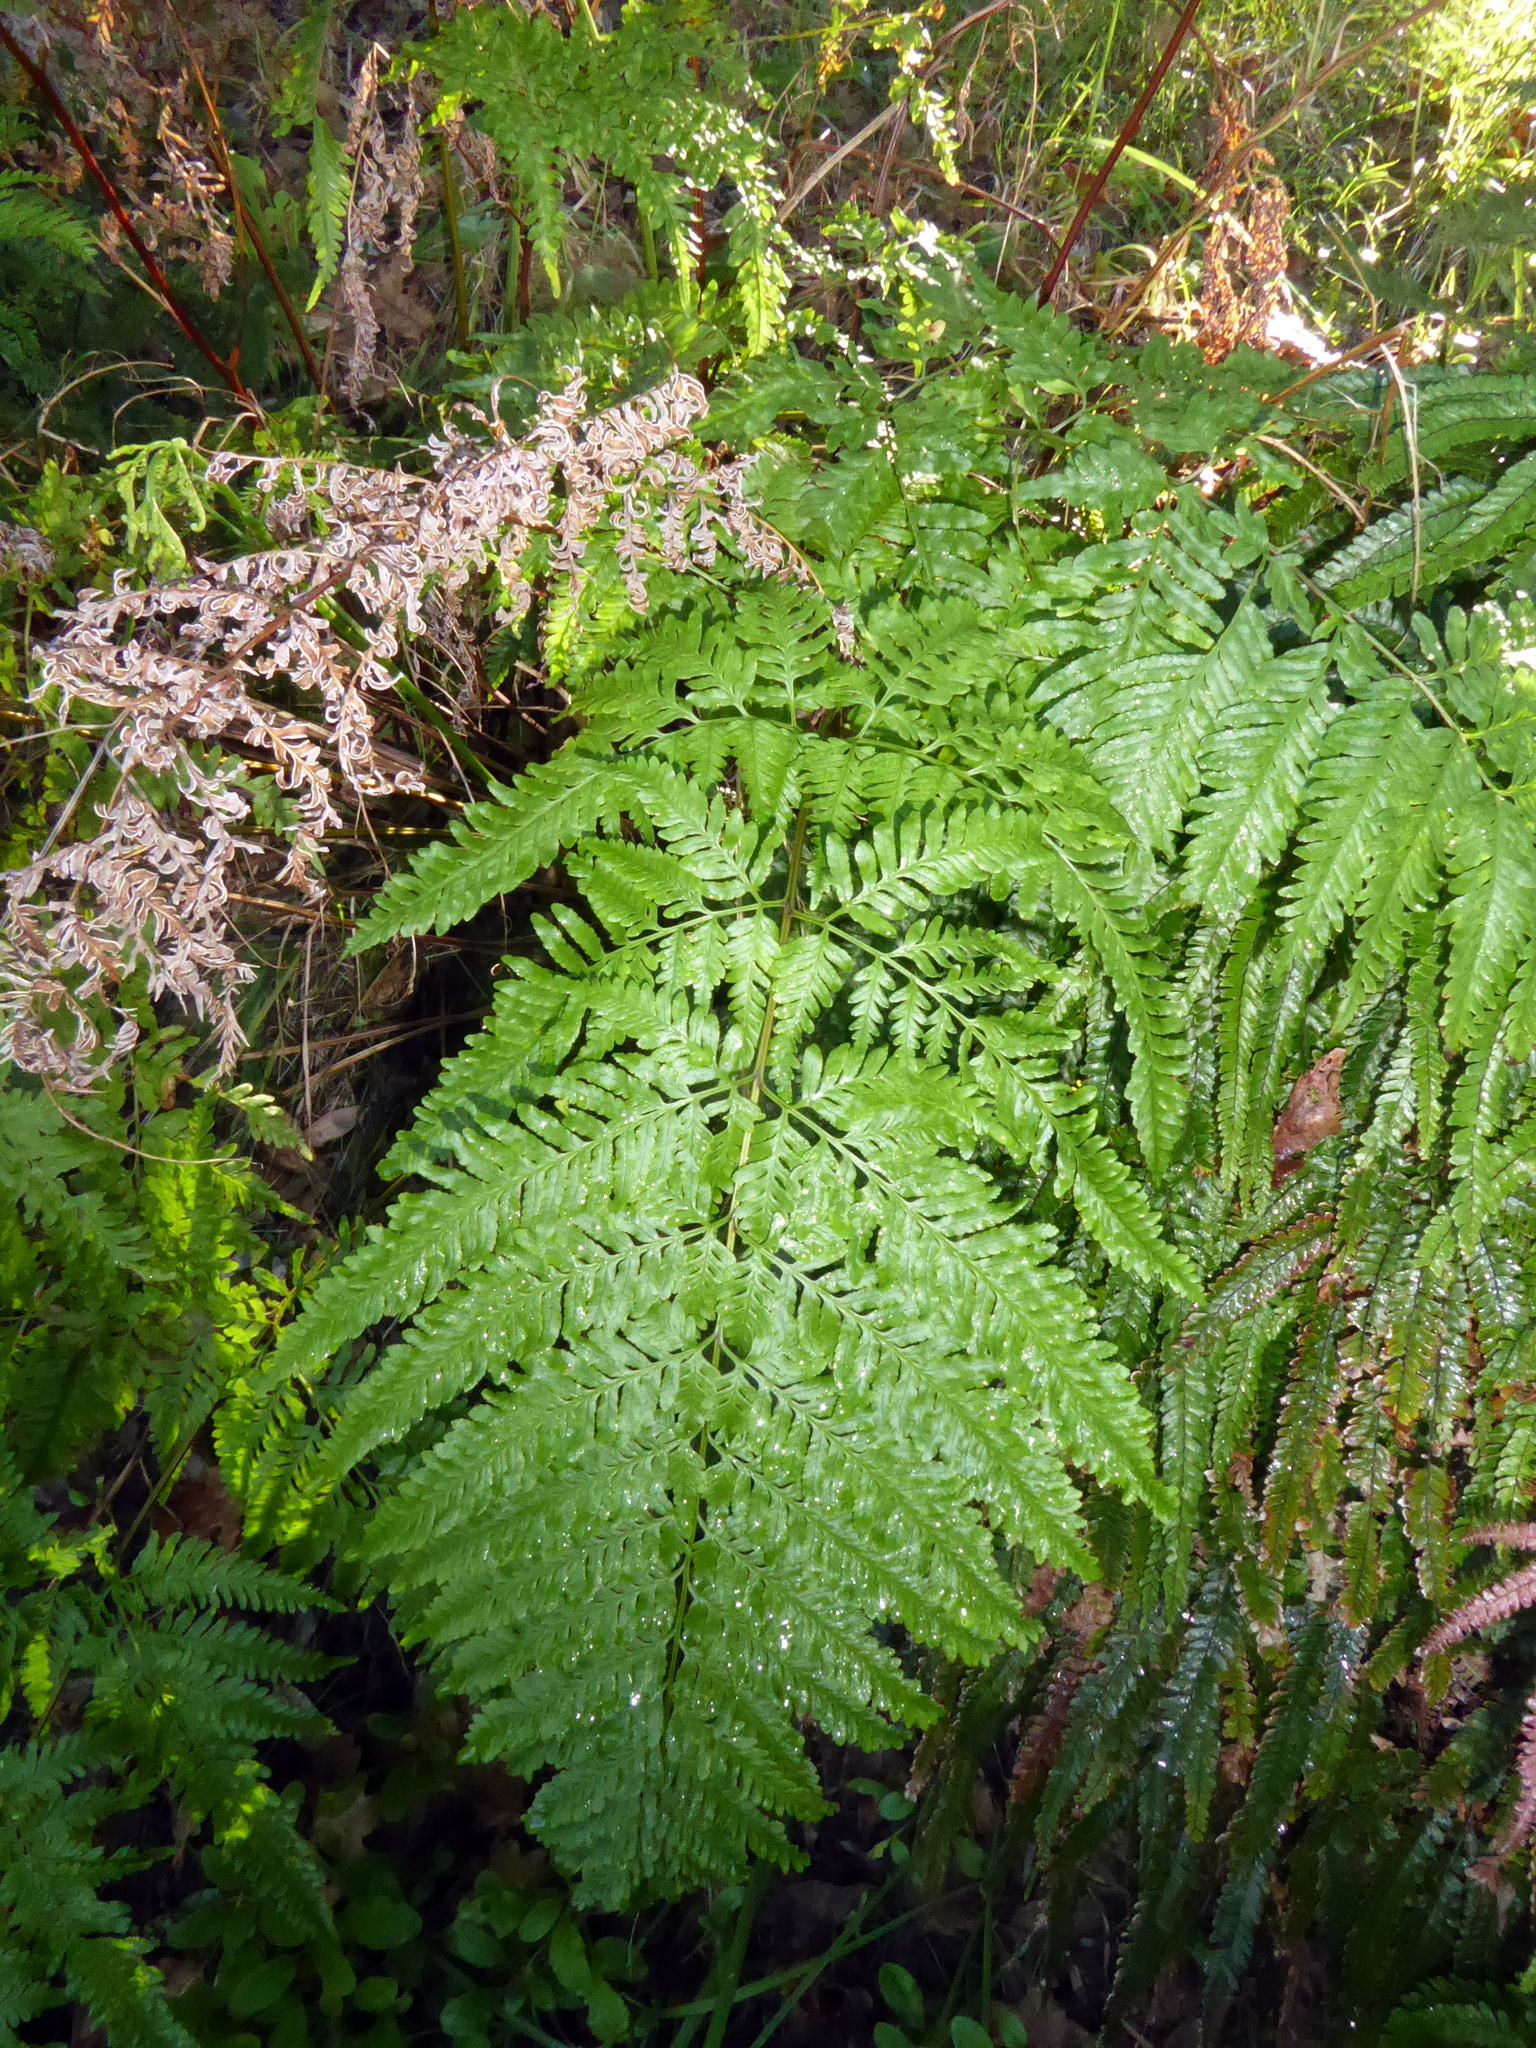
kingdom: Plantae
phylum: Tracheophyta
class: Polypodiopsida
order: Polypodiales
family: Pteridaceae
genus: Pteris
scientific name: Pteris tremula
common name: Australian brake
